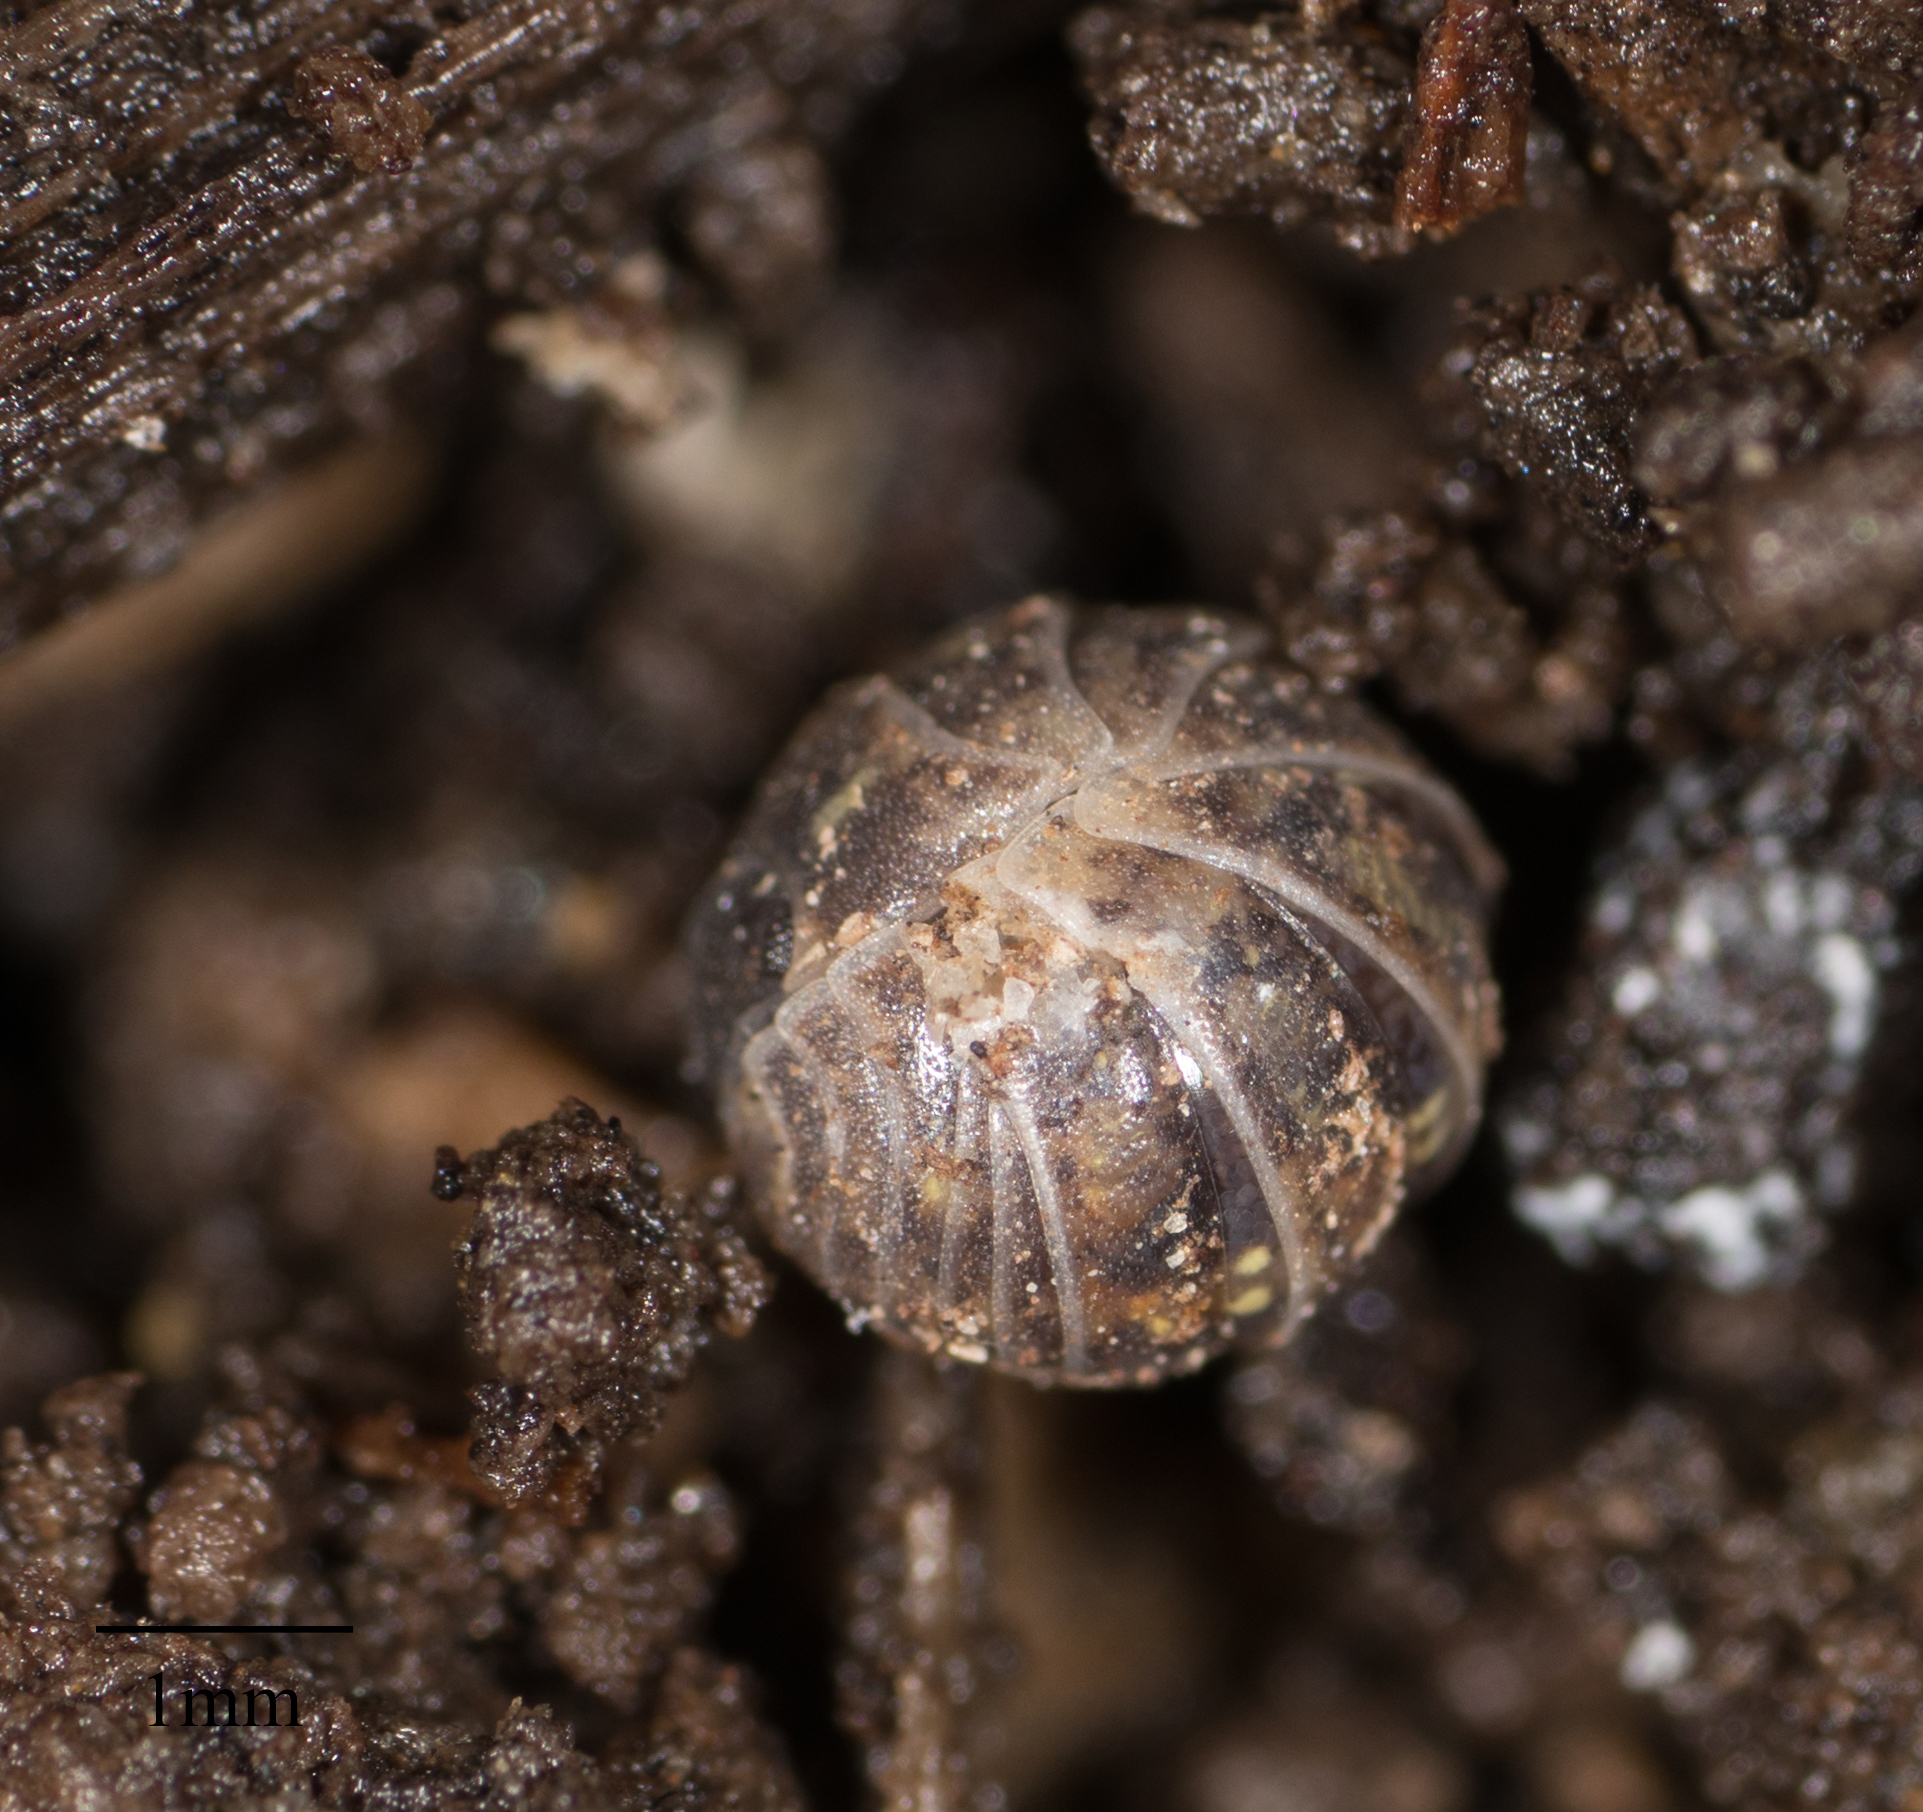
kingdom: Animalia
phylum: Arthropoda
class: Malacostraca
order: Isopoda
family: Armadillidiidae
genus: Armadillidium
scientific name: Armadillidium vulgare
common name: Common pill woodlouse
